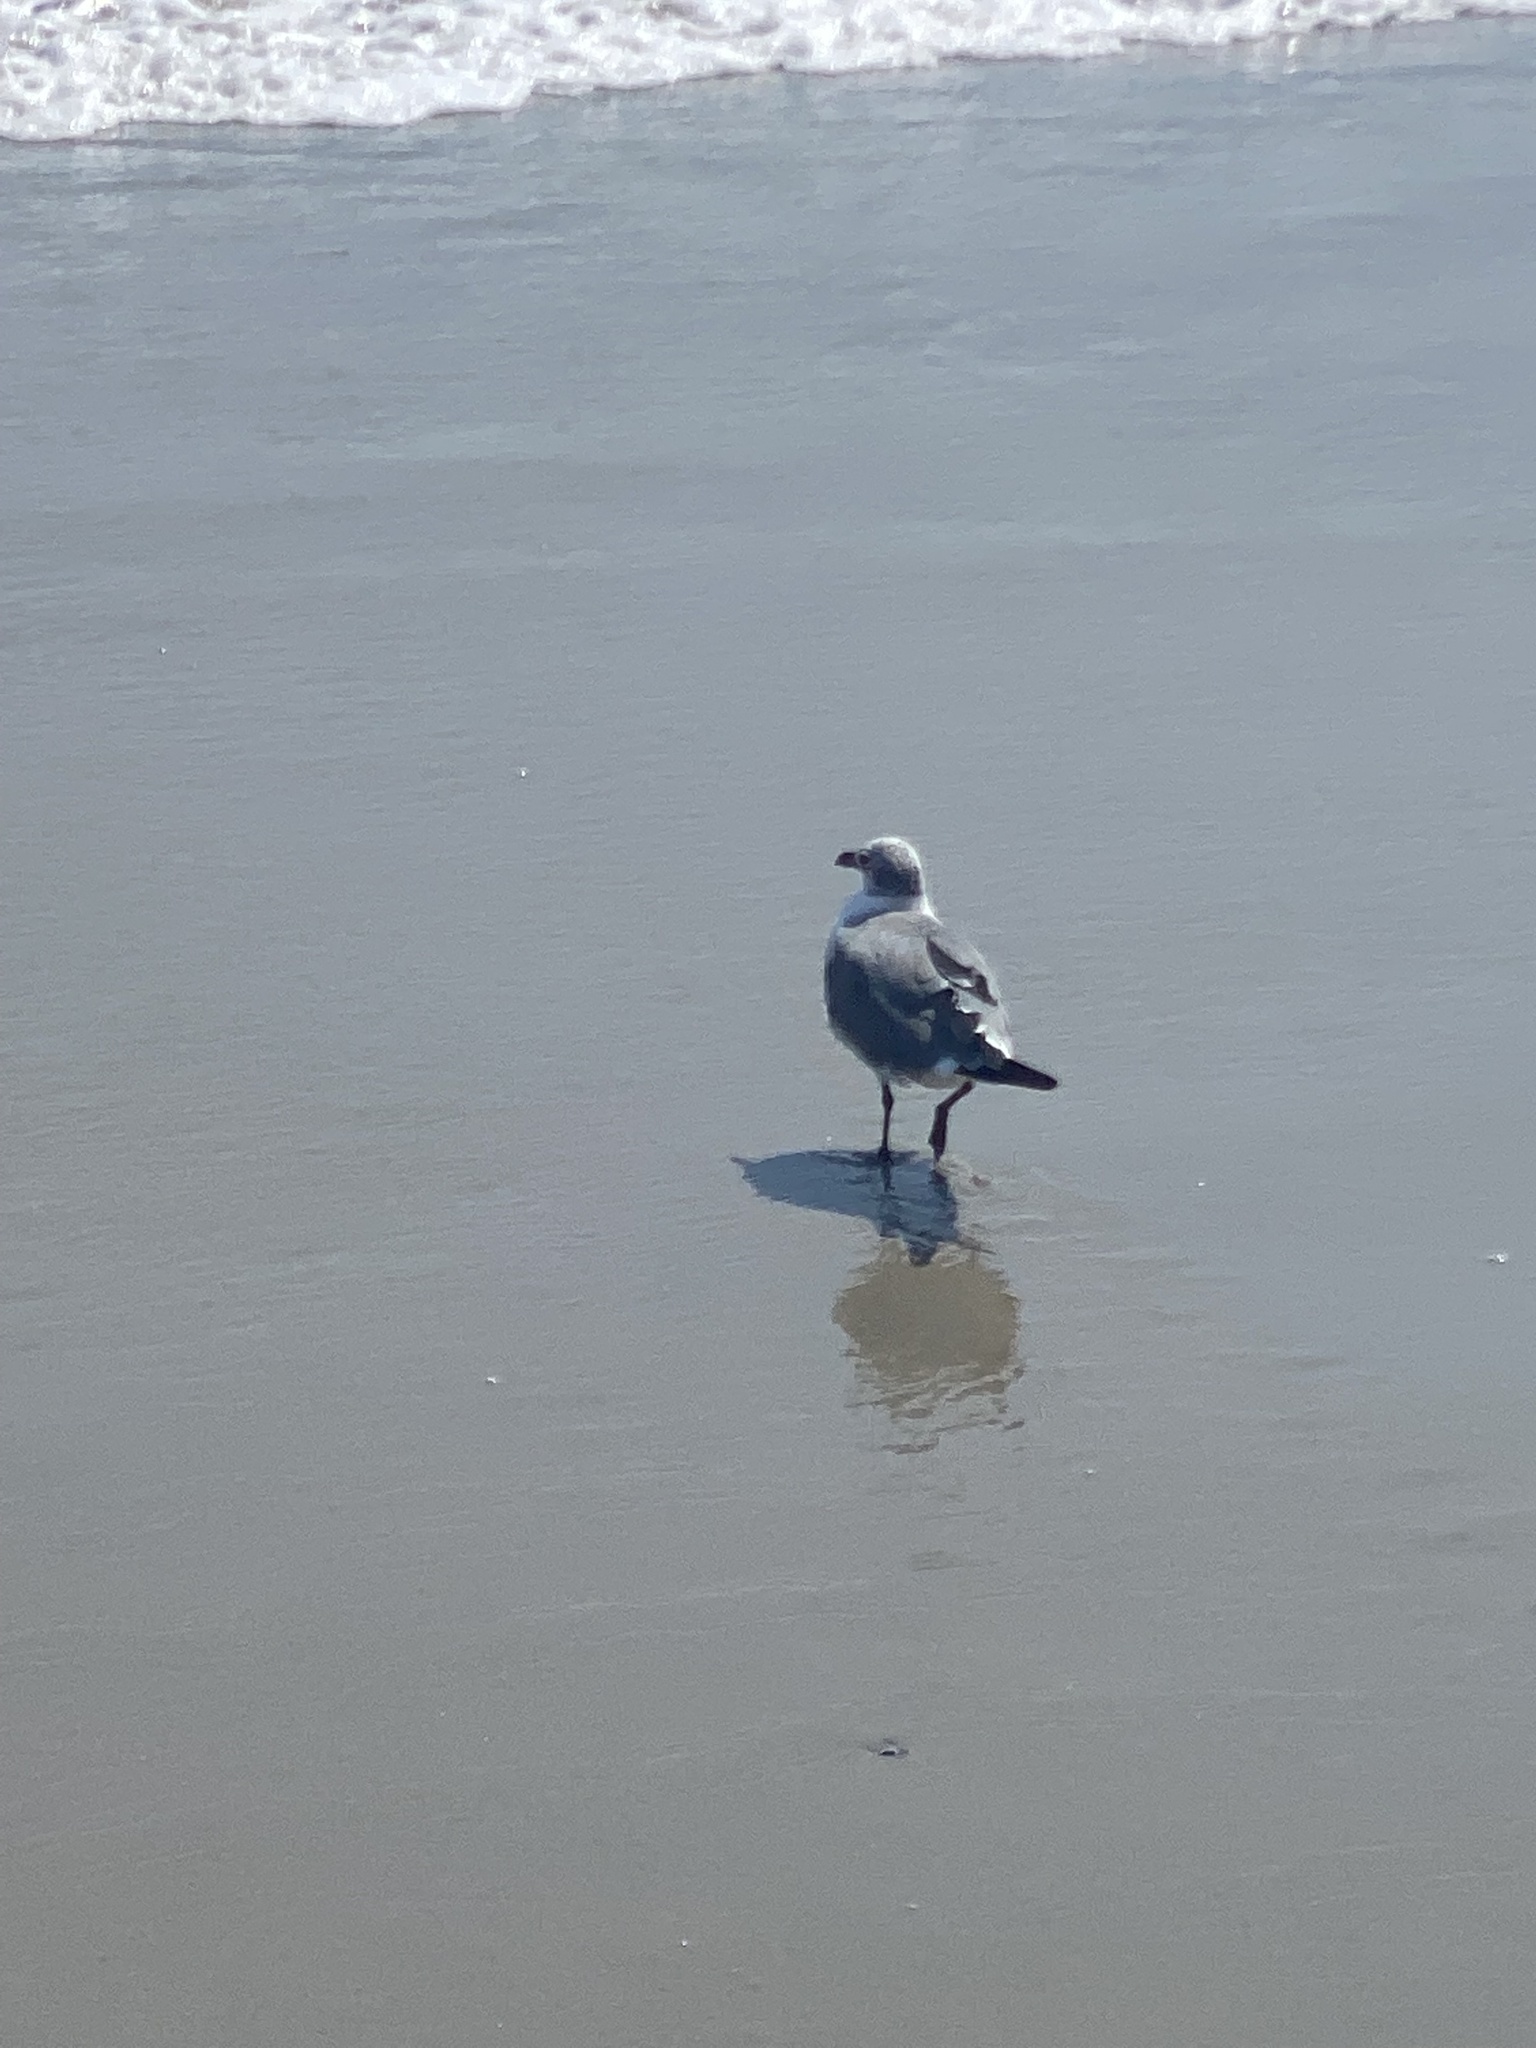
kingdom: Animalia
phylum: Chordata
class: Aves
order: Charadriiformes
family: Laridae
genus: Leucophaeus
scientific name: Leucophaeus atricilla
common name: Laughing gull
